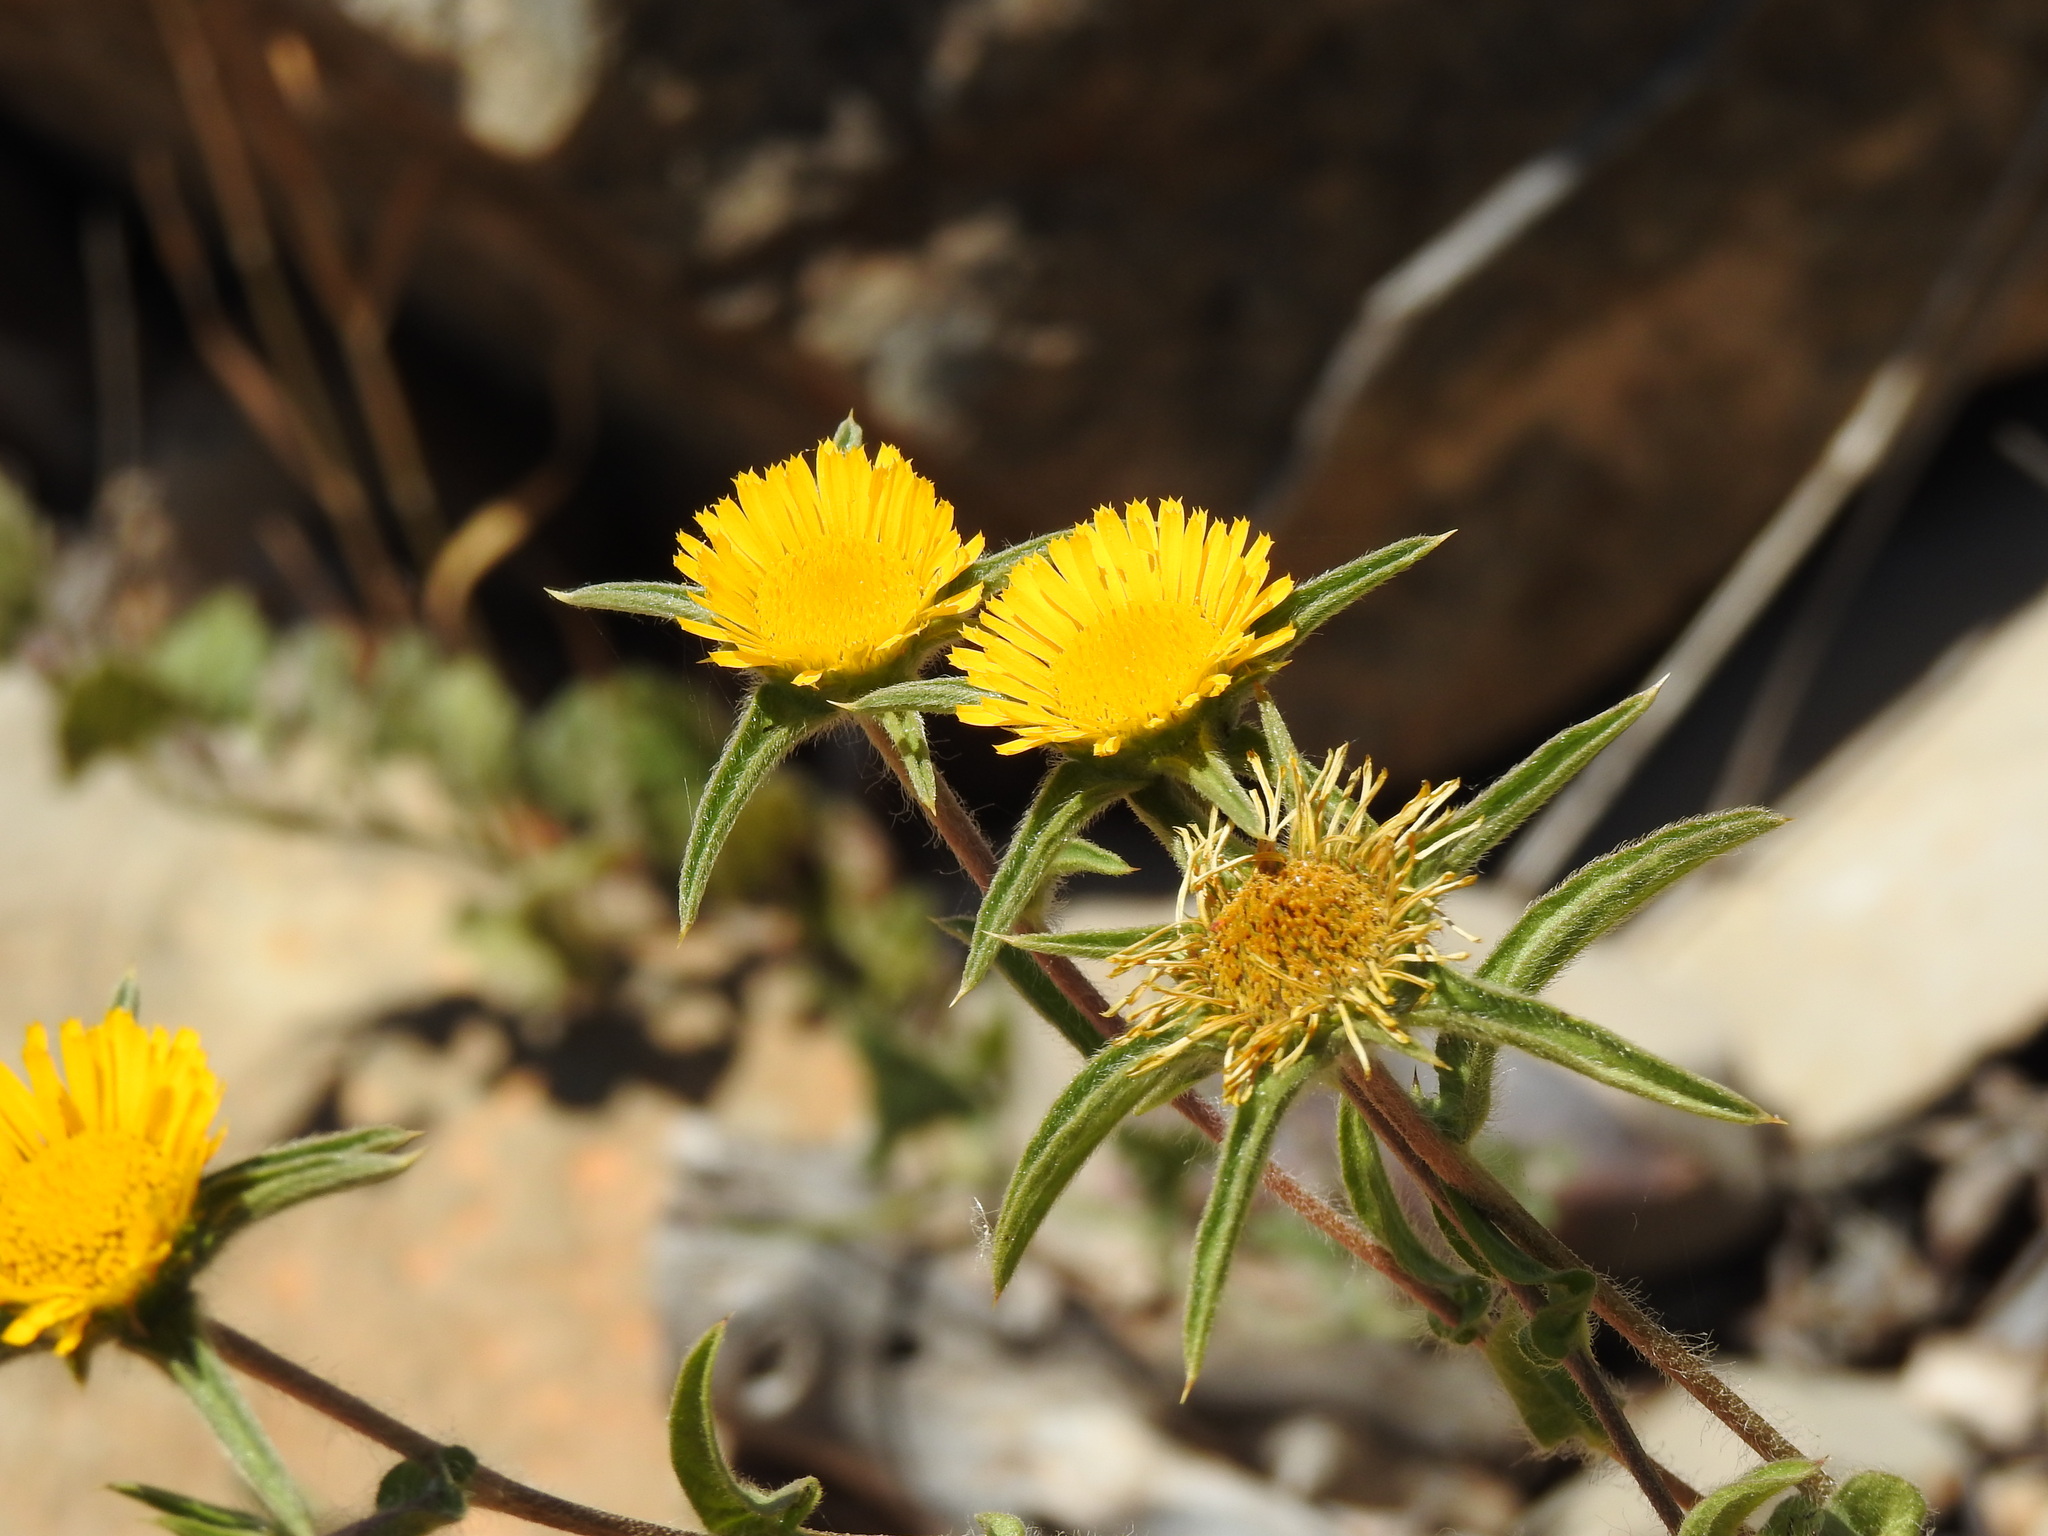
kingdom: Plantae
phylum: Tracheophyta
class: Magnoliopsida
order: Asterales
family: Asteraceae
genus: Pallenis
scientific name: Pallenis spinosa
